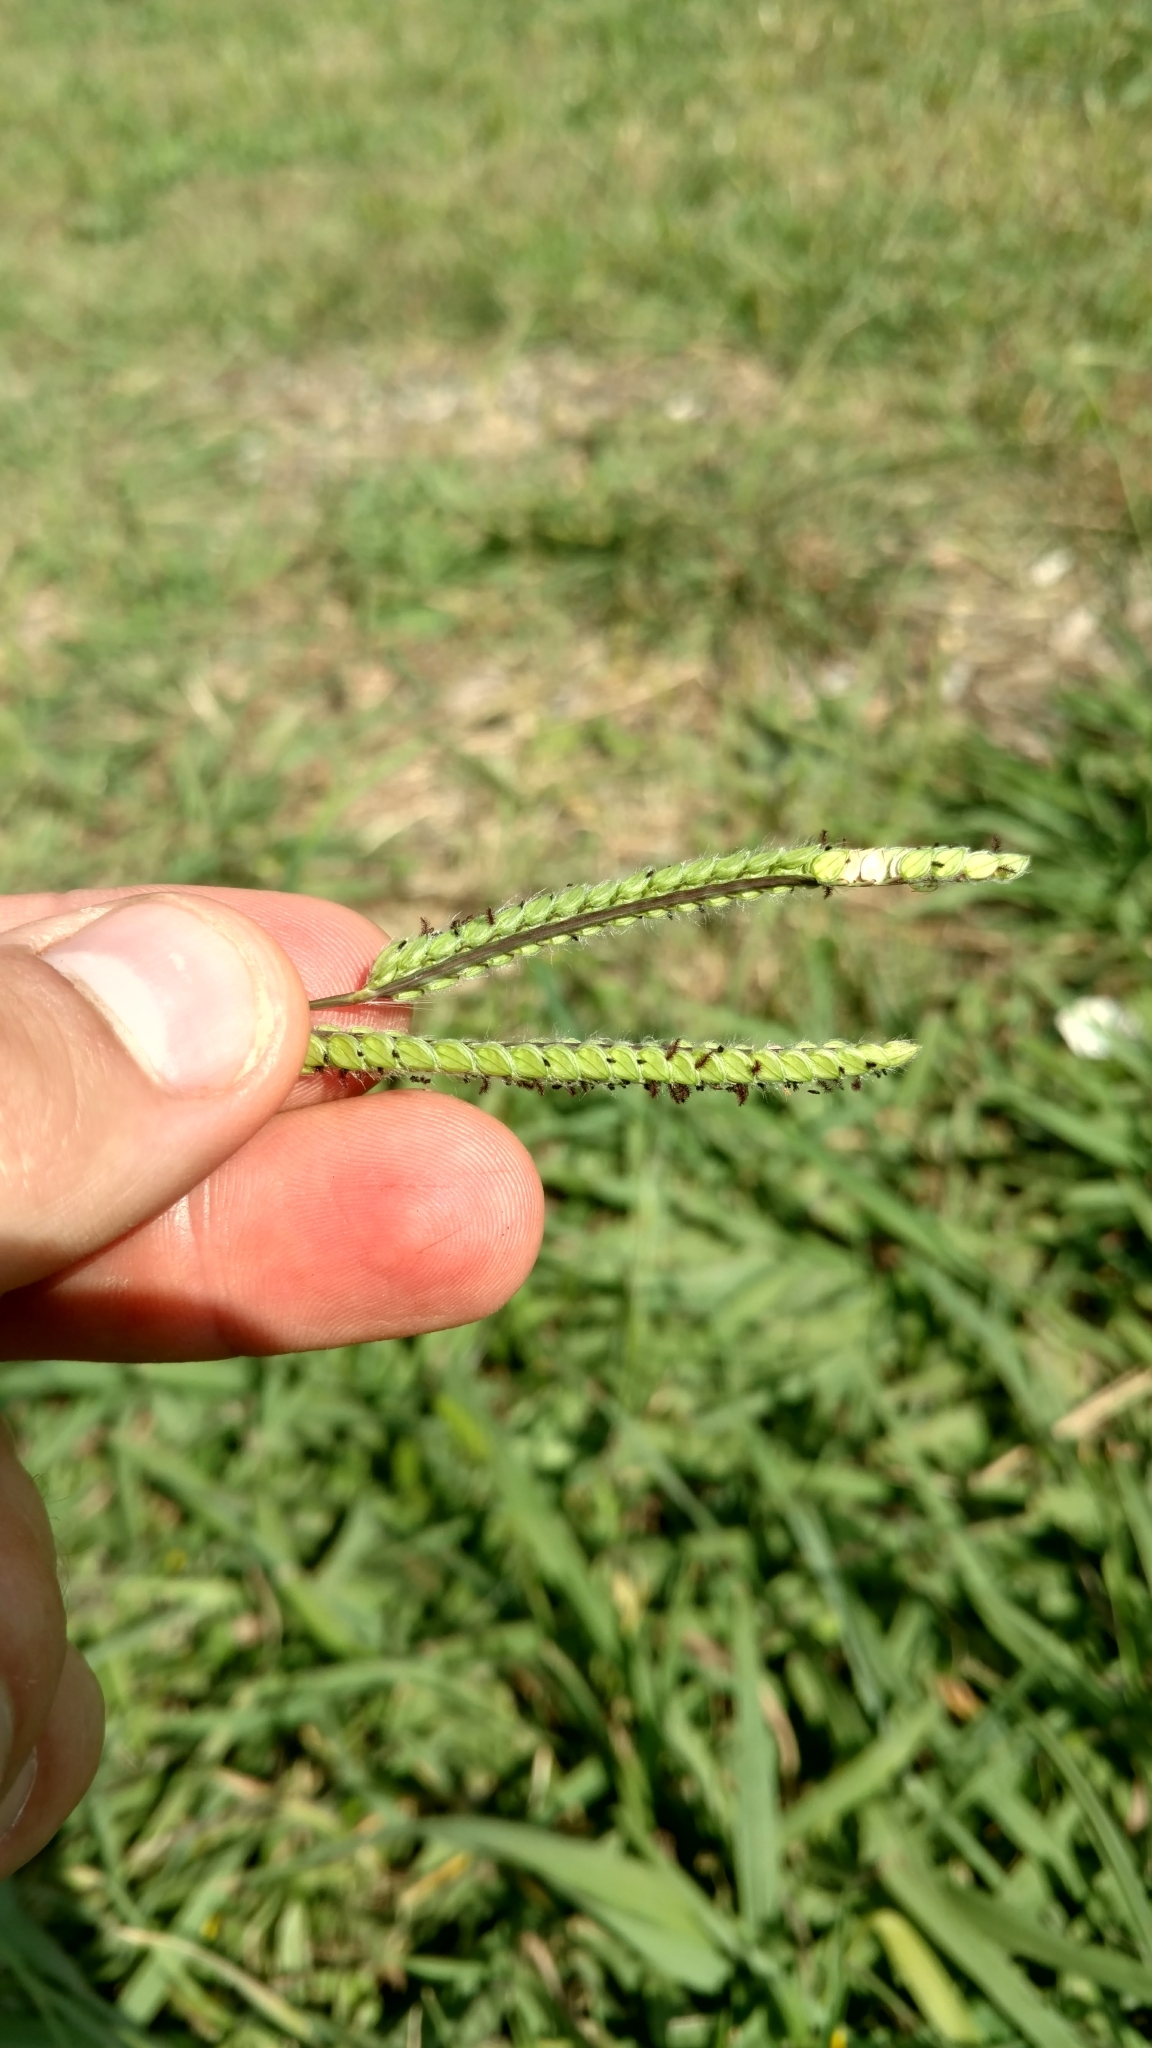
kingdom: Plantae
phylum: Tracheophyta
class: Liliopsida
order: Poales
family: Poaceae
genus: Paspalum
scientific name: Paspalum dilatatum
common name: Dallisgrass
